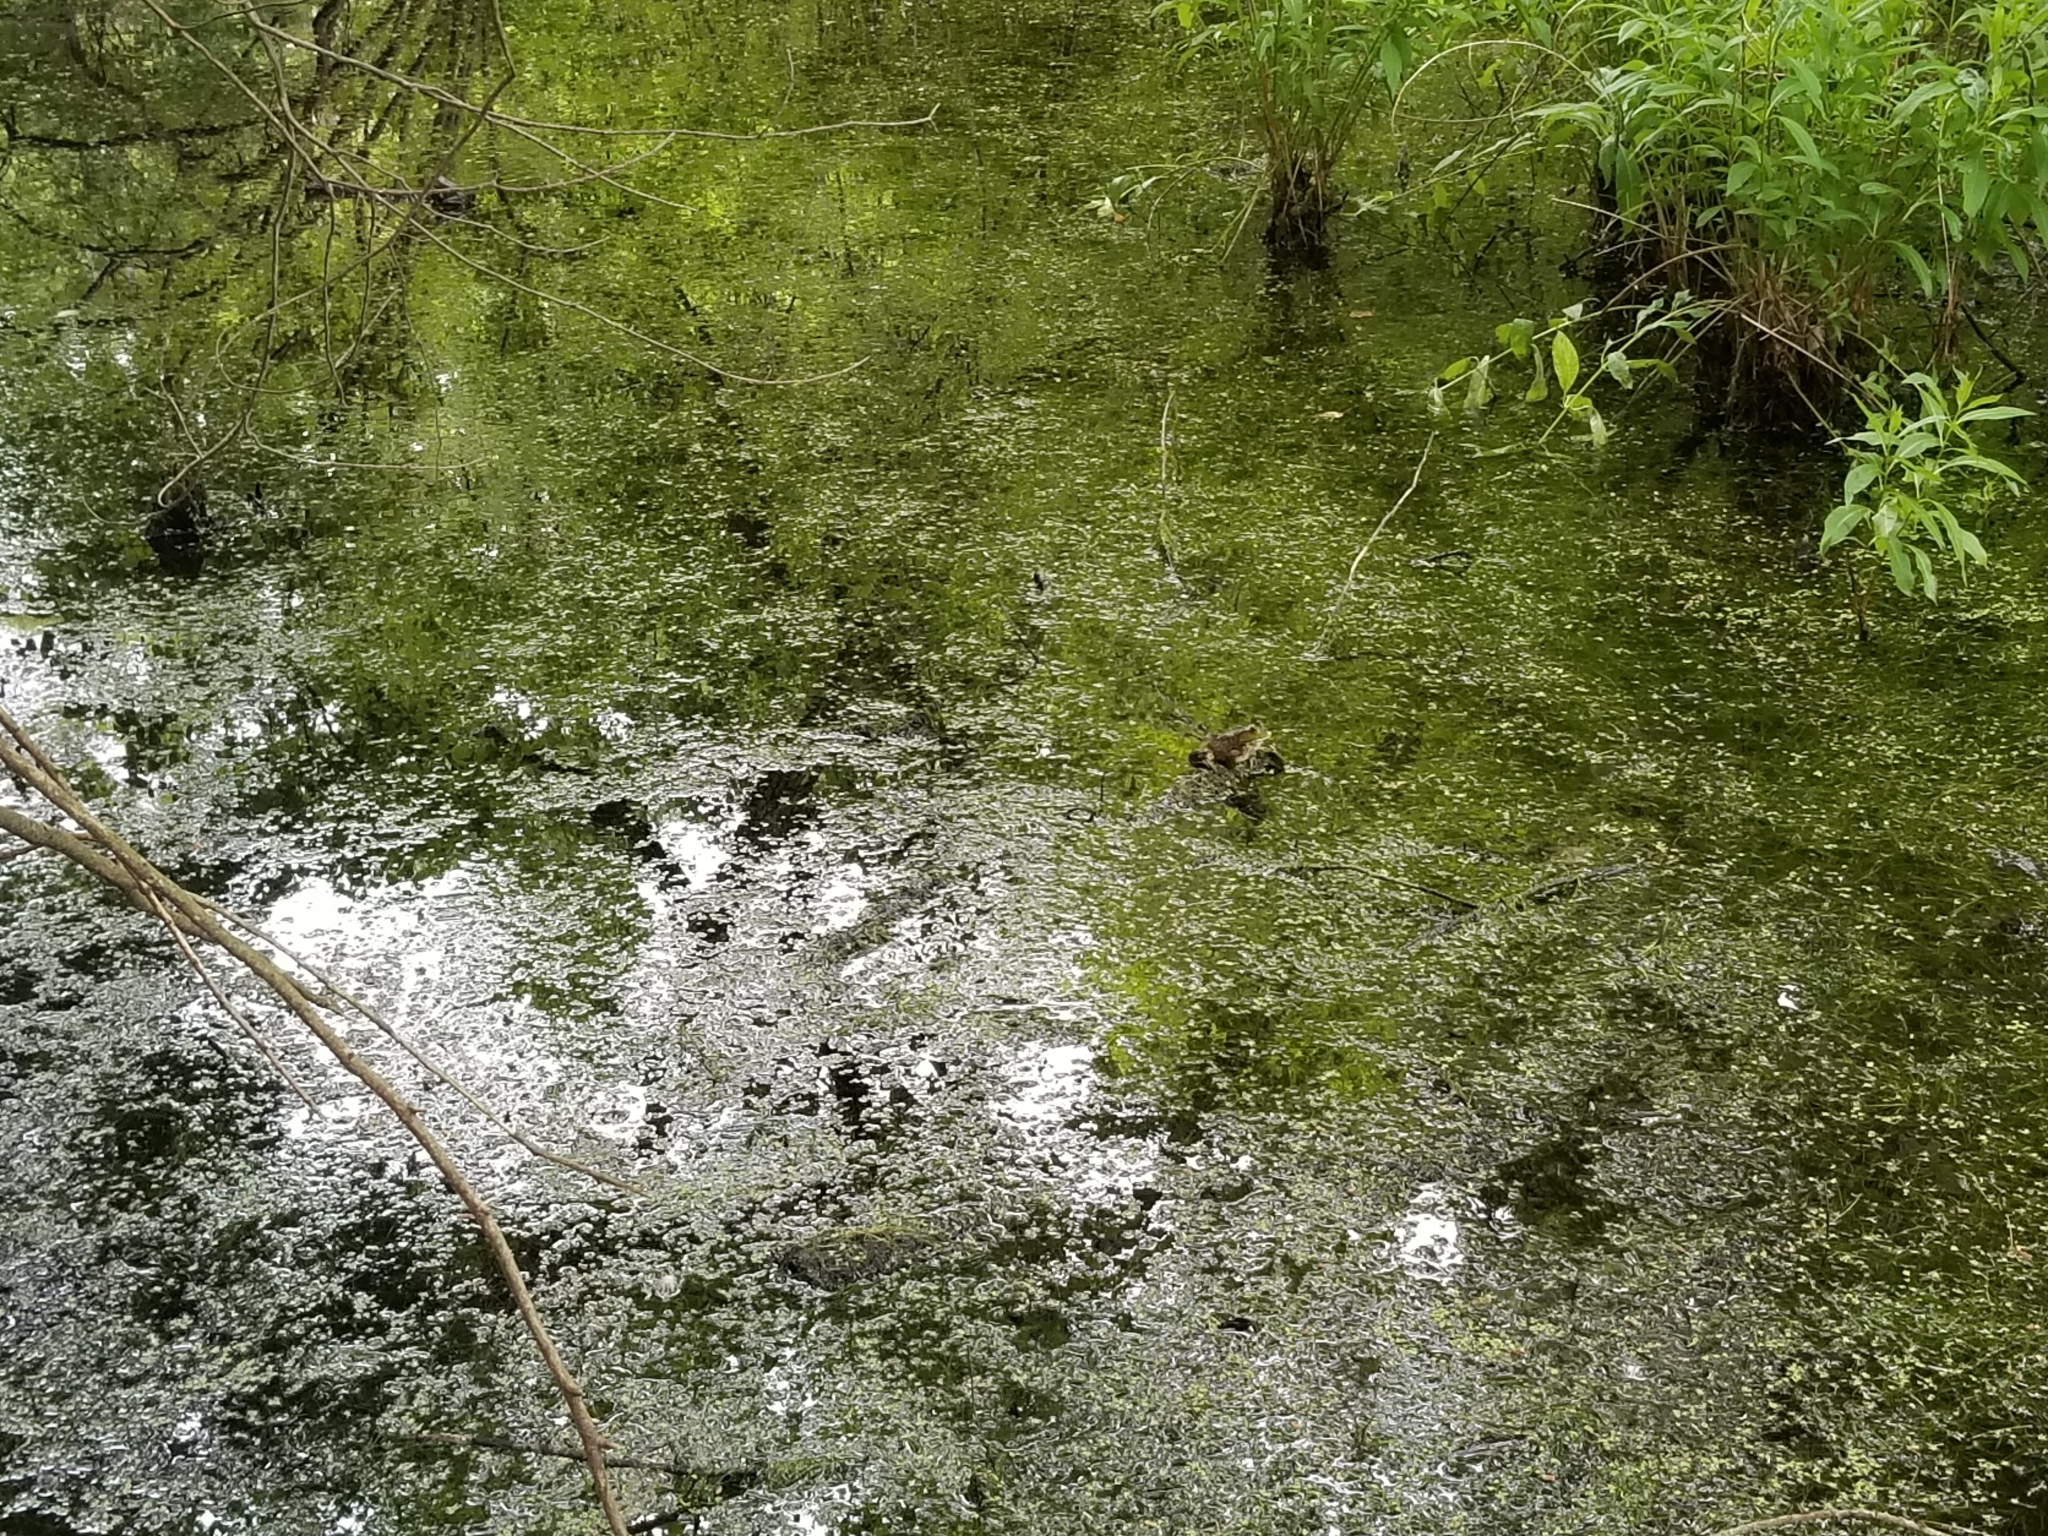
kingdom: Animalia
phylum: Chordata
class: Amphibia
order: Anura
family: Ranidae
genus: Lithobates
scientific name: Lithobates catesbeianus
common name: American bullfrog
